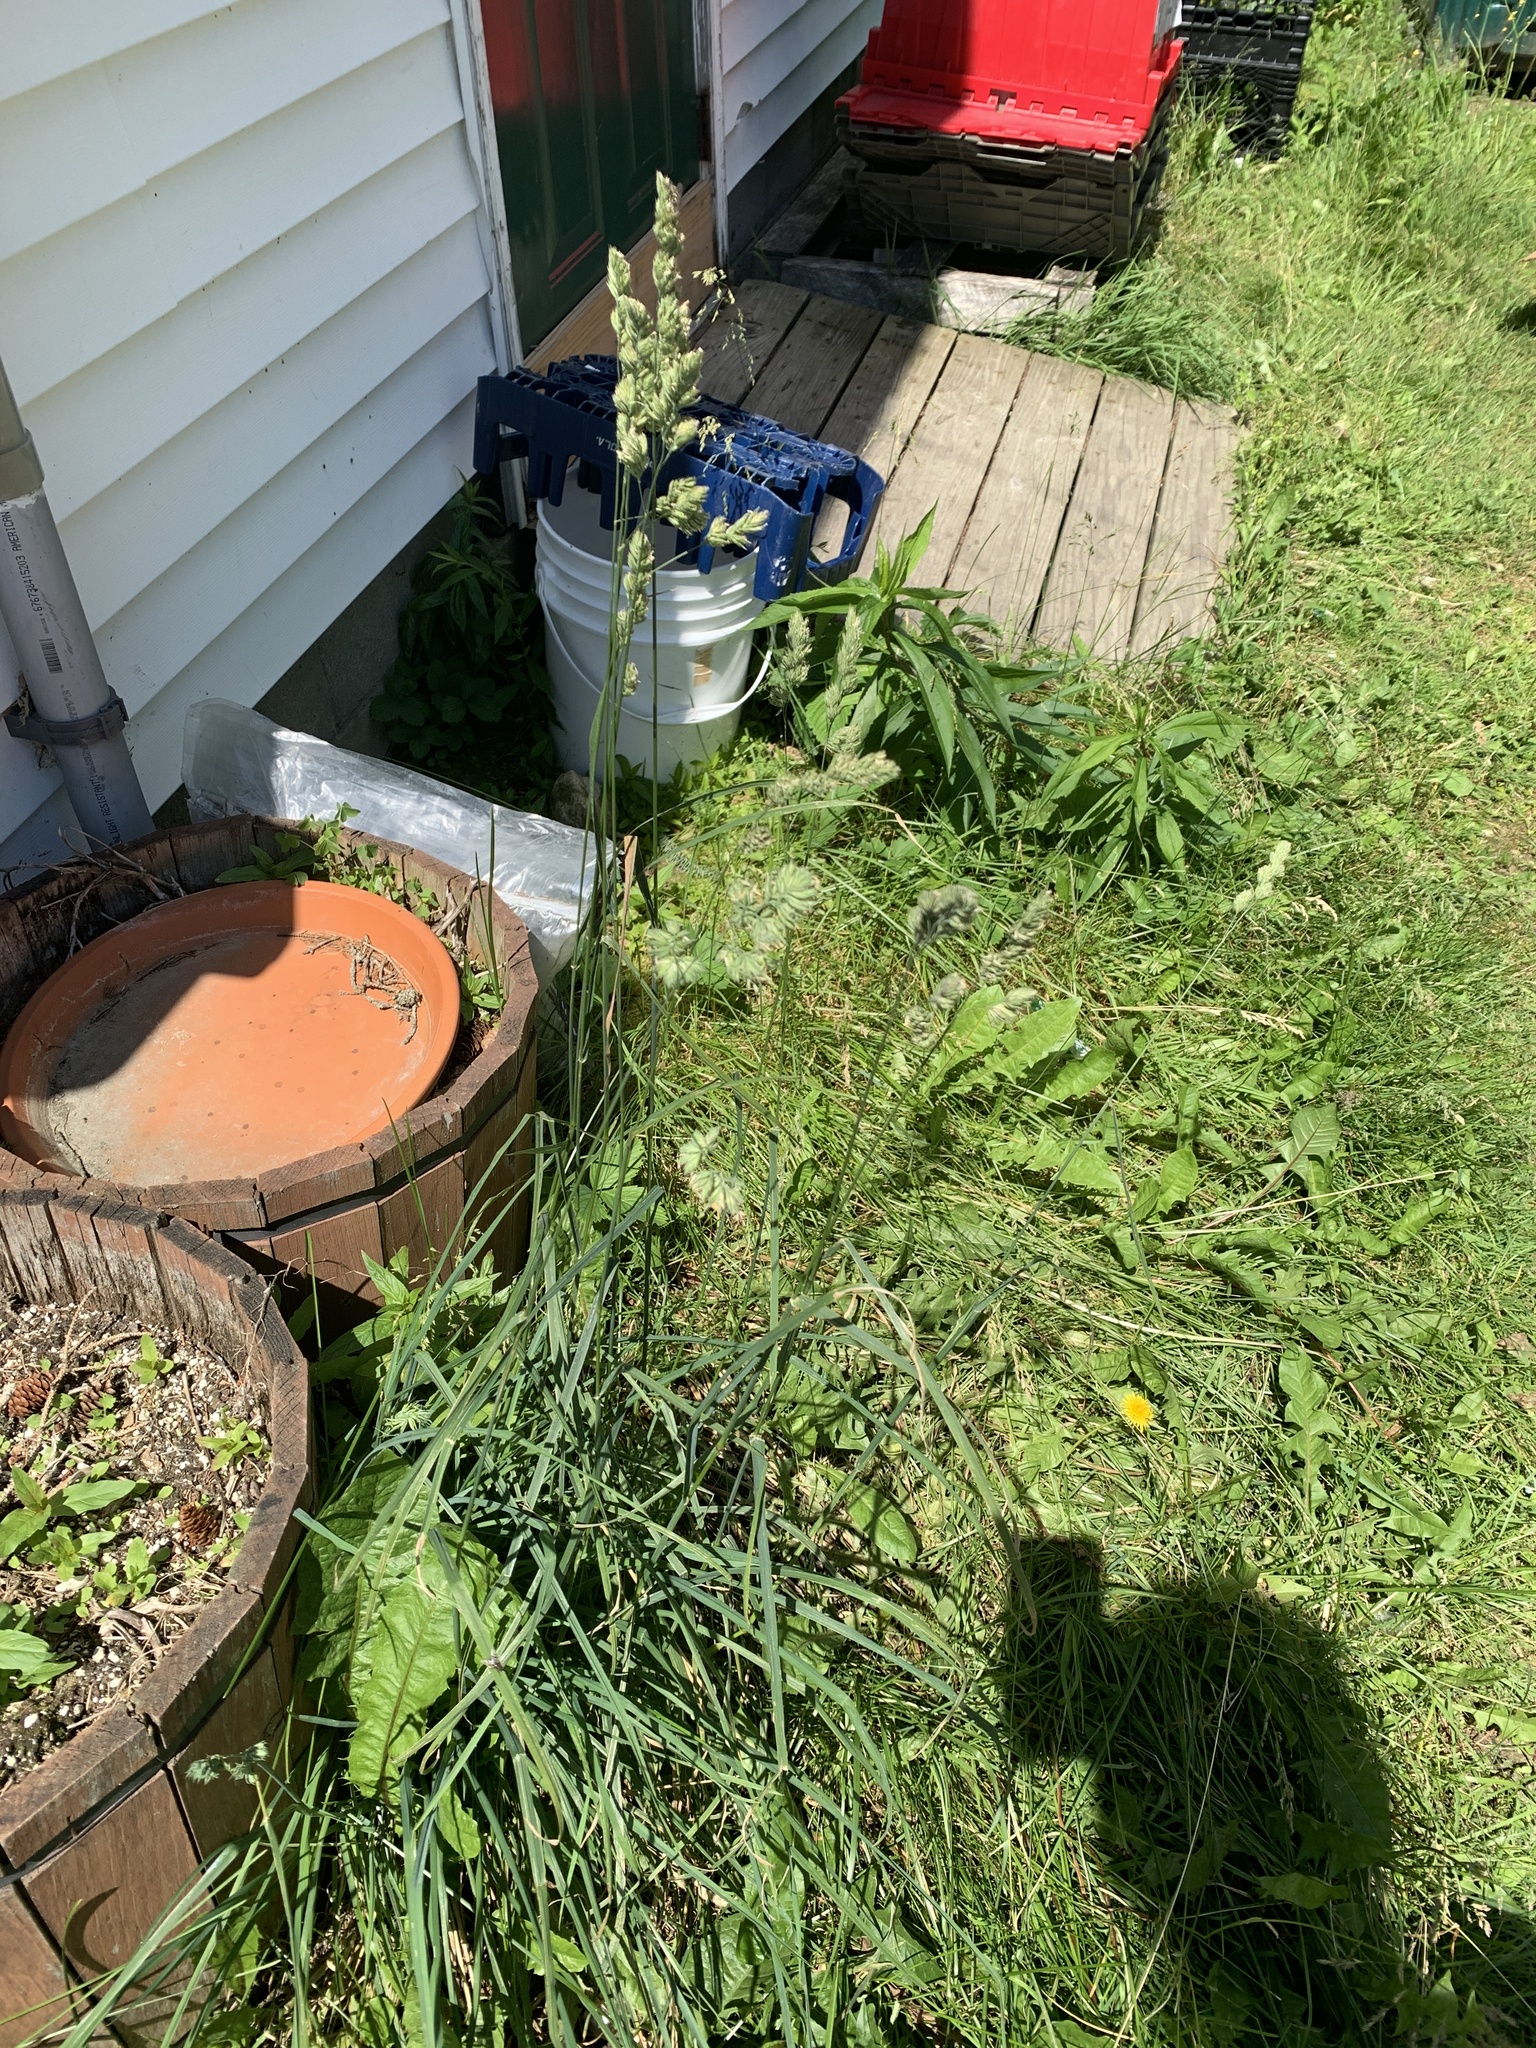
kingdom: Plantae
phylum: Tracheophyta
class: Liliopsida
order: Poales
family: Poaceae
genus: Dactylis
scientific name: Dactylis glomerata
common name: Orchardgrass
